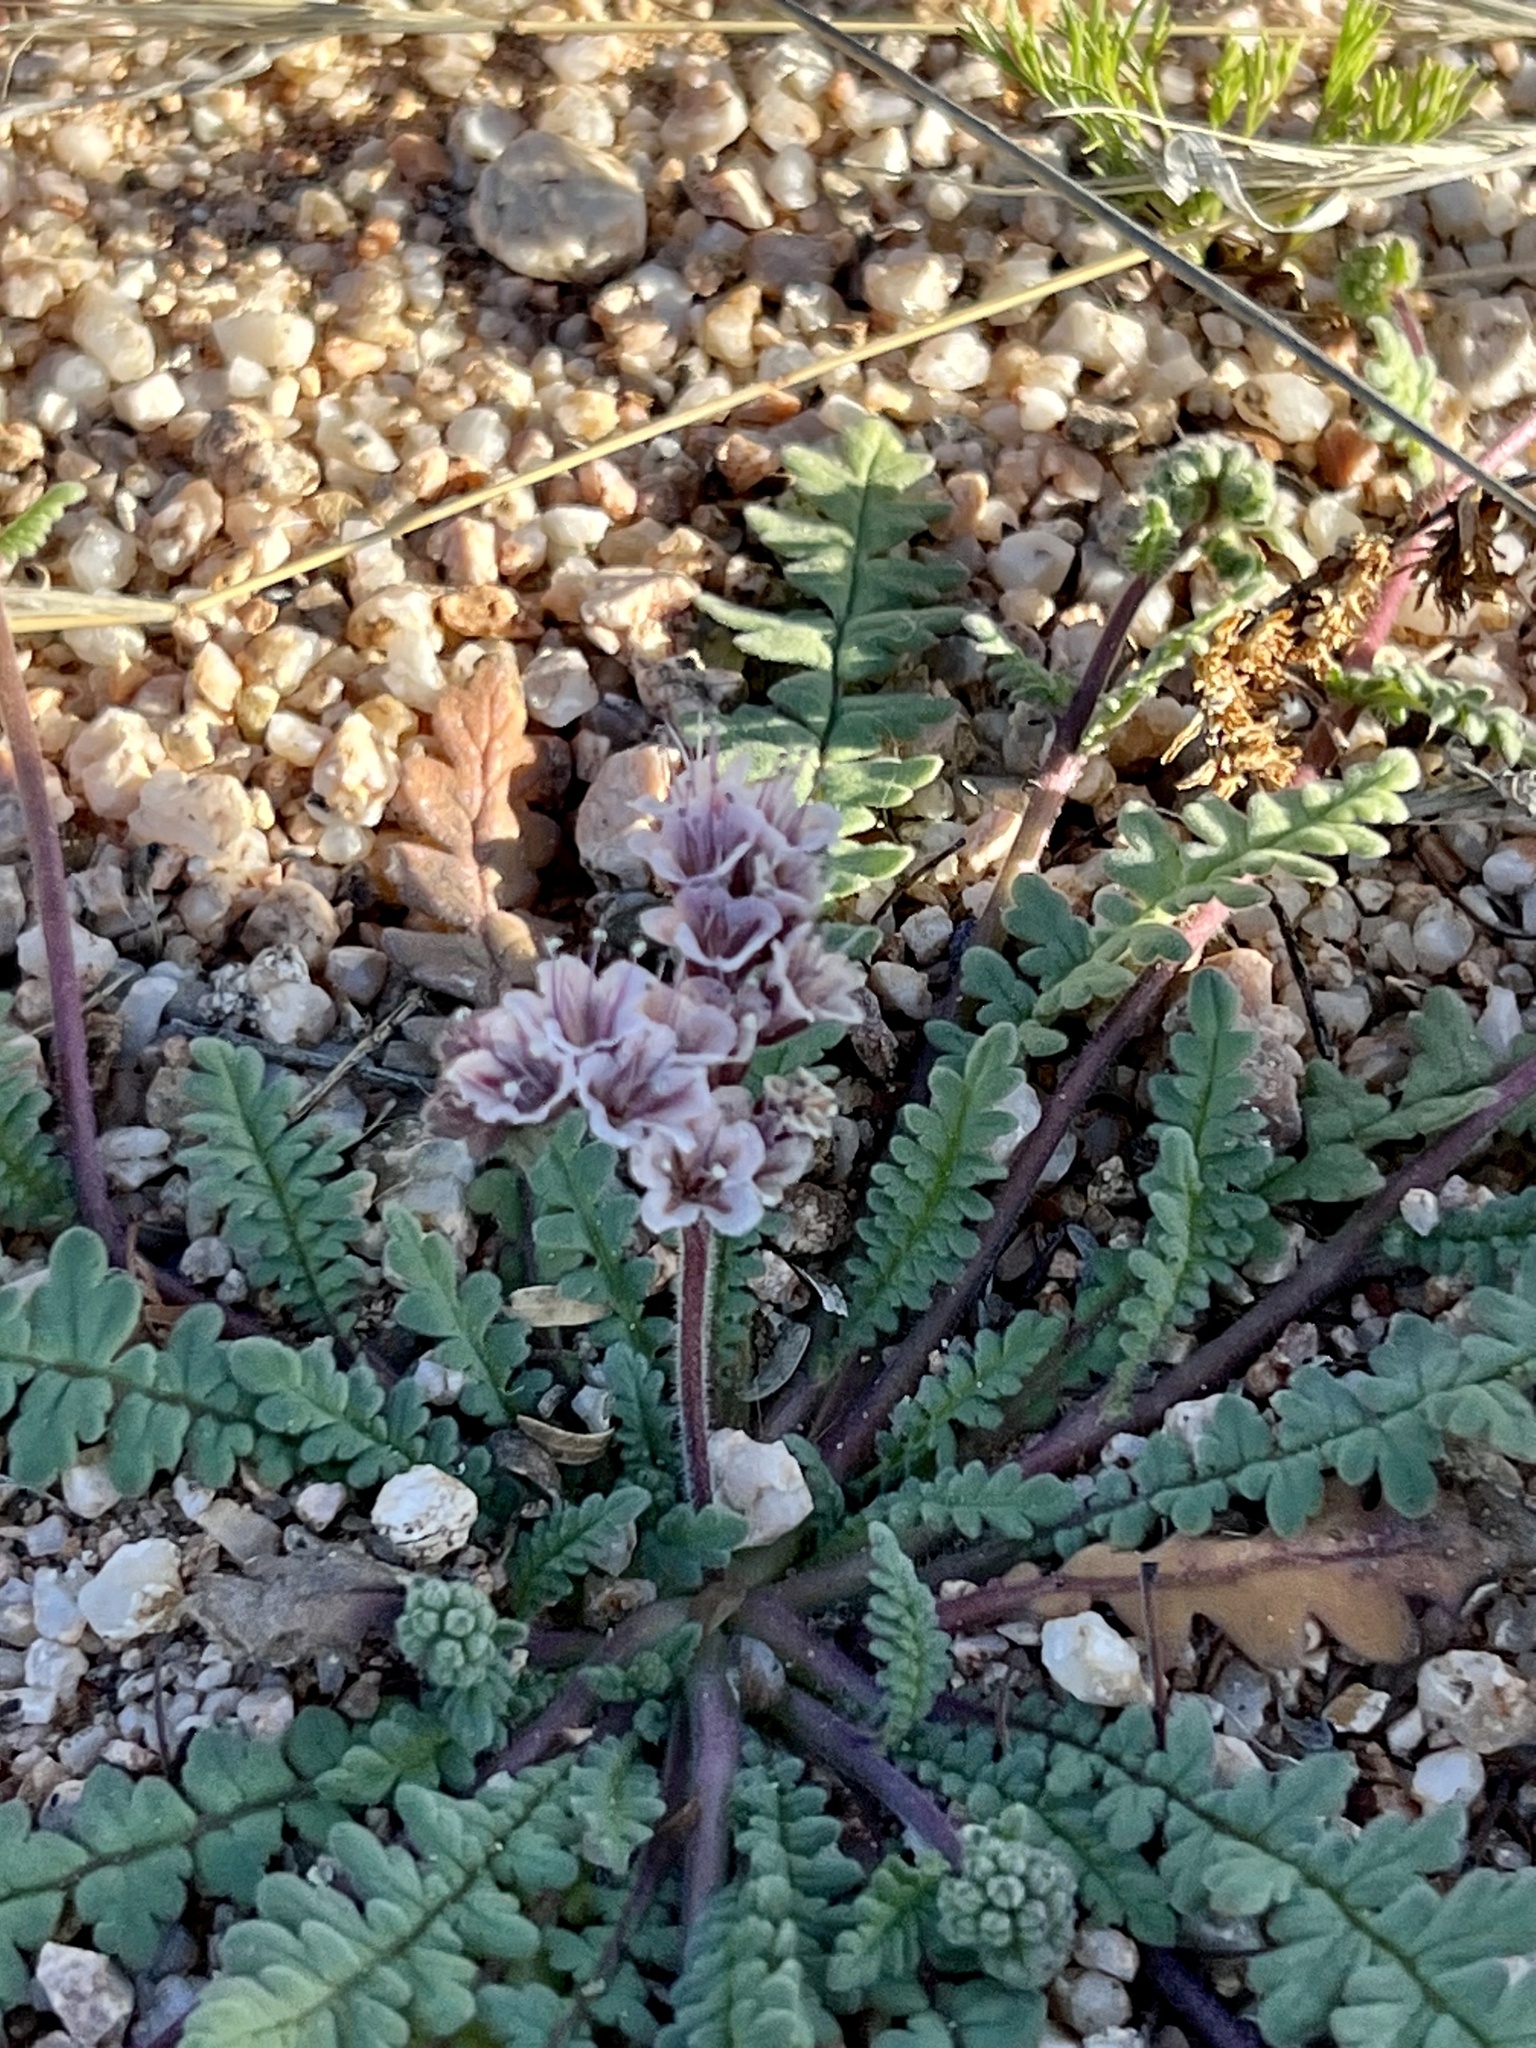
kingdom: Plantae
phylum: Tracheophyta
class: Magnoliopsida
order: Boraginales
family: Hydrophyllaceae
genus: Phacelia
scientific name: Phacelia arizonica
